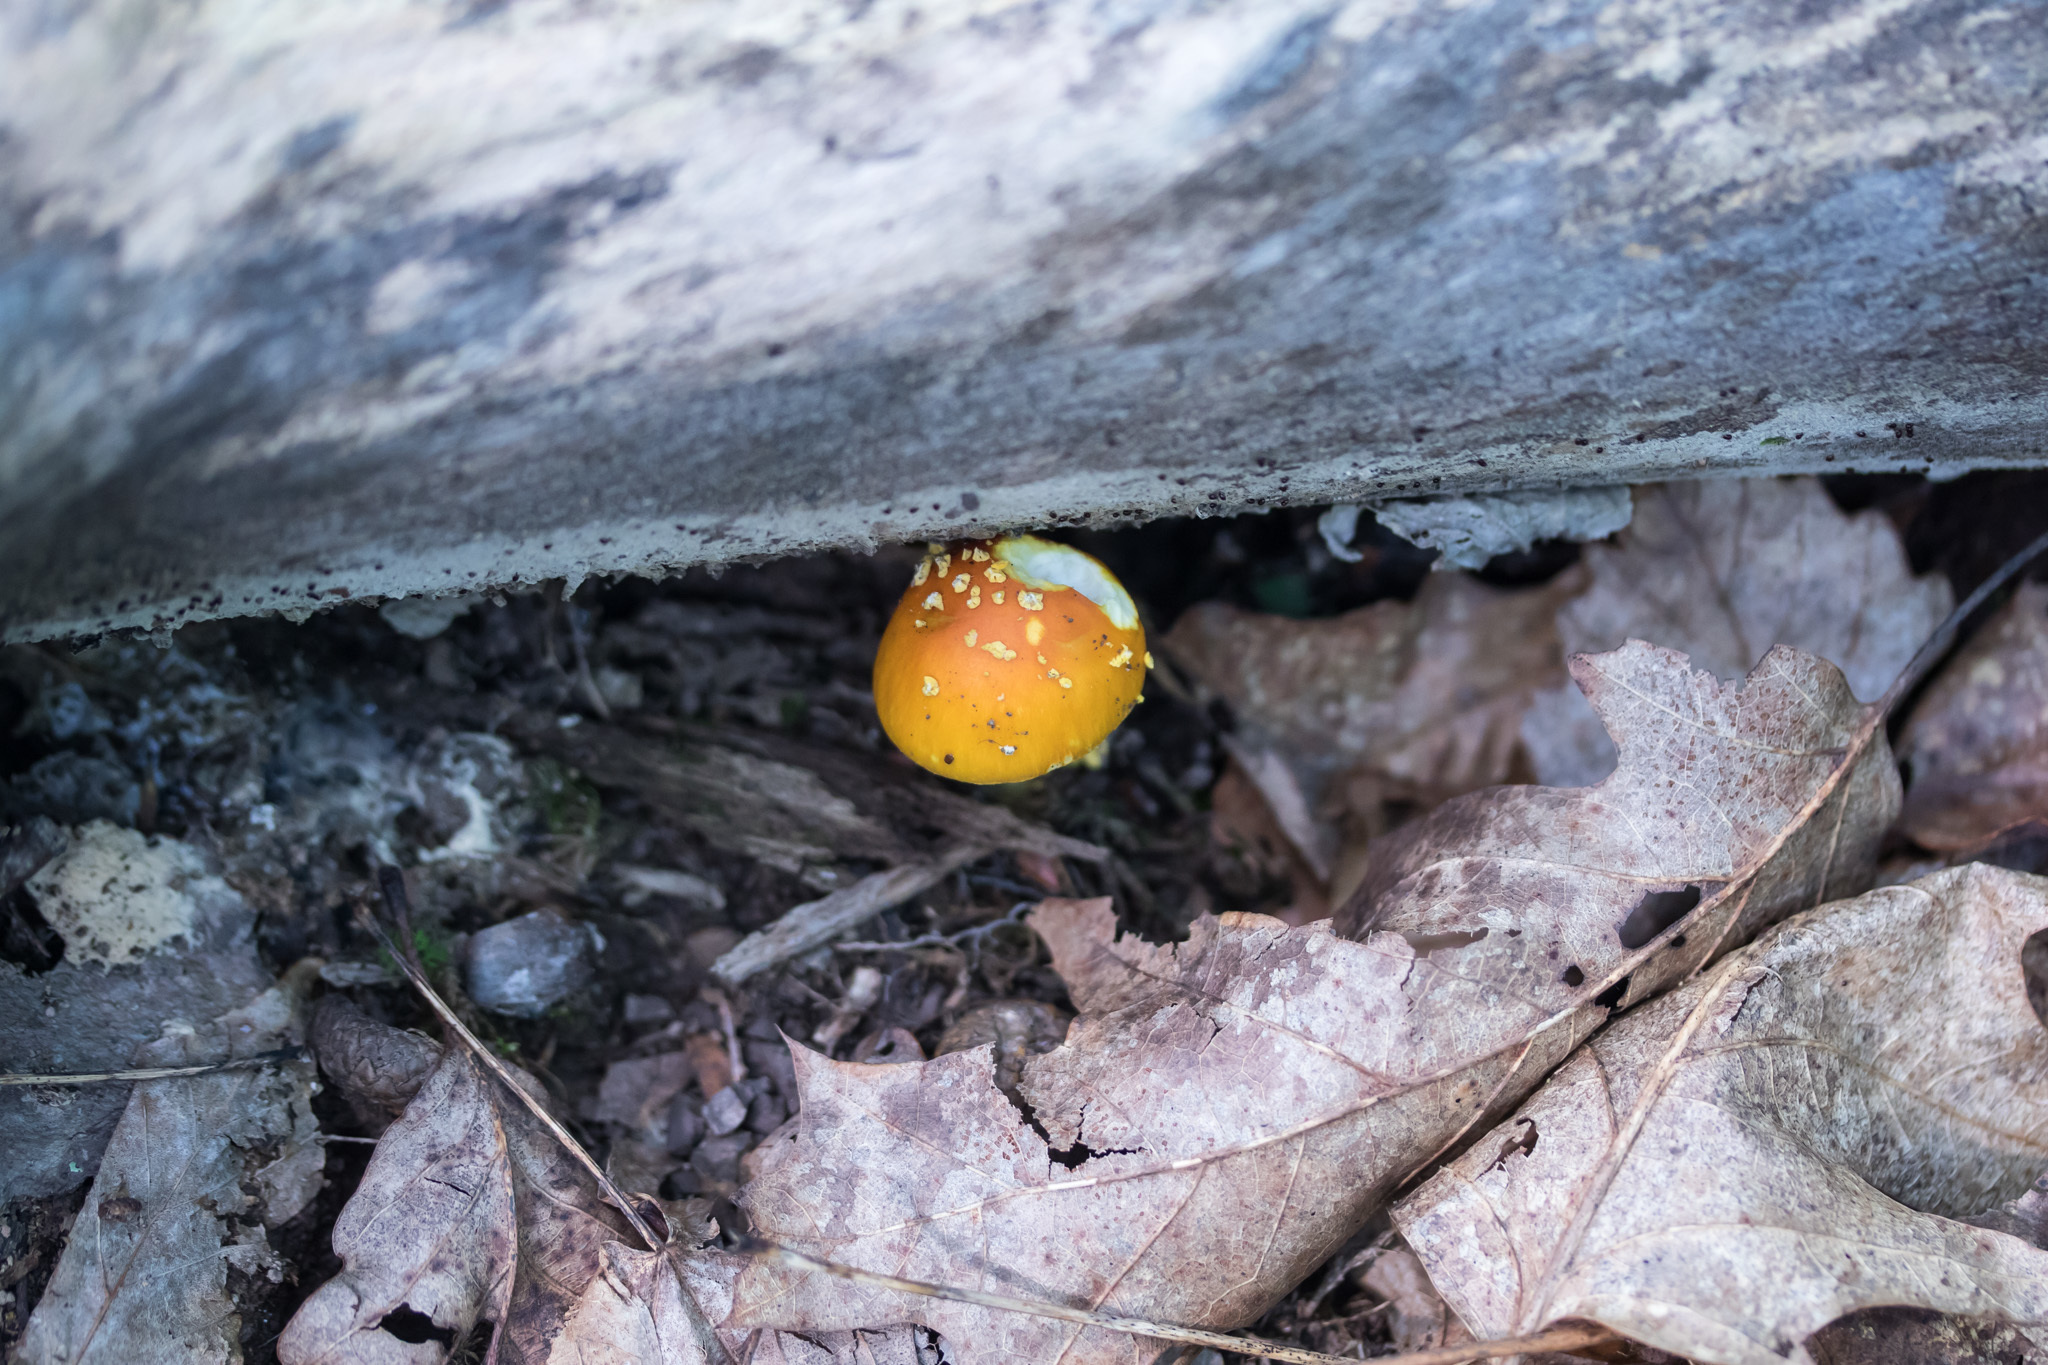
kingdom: Fungi
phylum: Basidiomycota
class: Agaricomycetes
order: Agaricales
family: Amanitaceae
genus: Amanita
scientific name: Amanita flavoconia
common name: Yellow patches
